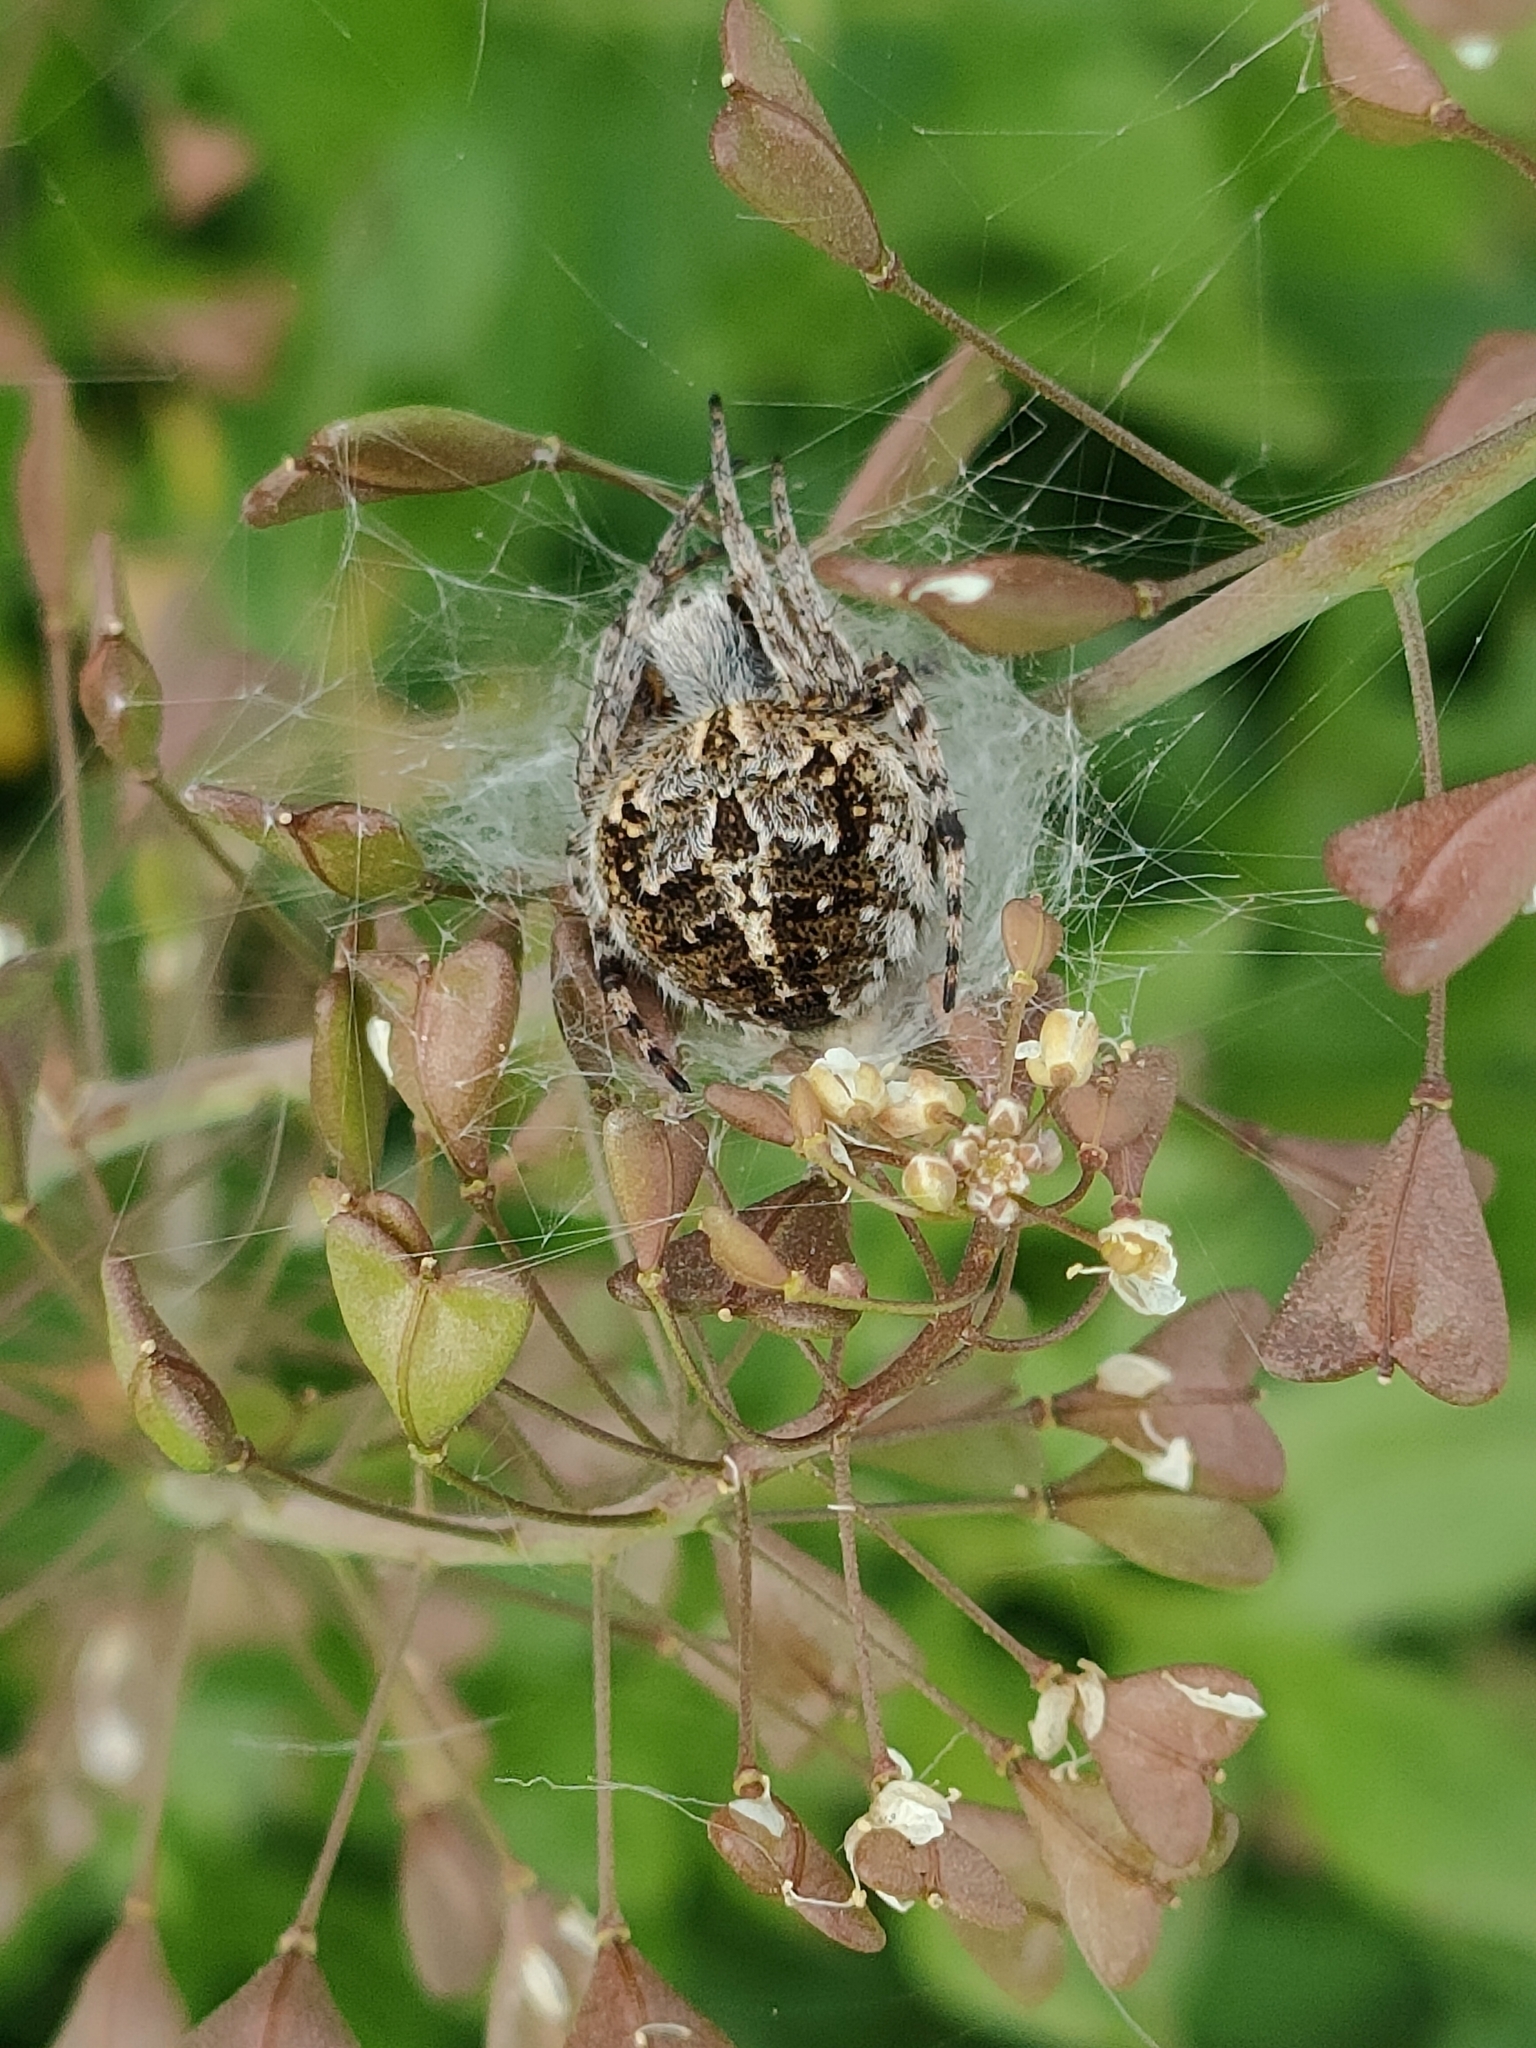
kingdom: Animalia
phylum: Arthropoda
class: Arachnida
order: Araneae
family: Araneidae
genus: Agalenatea
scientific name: Agalenatea redii
